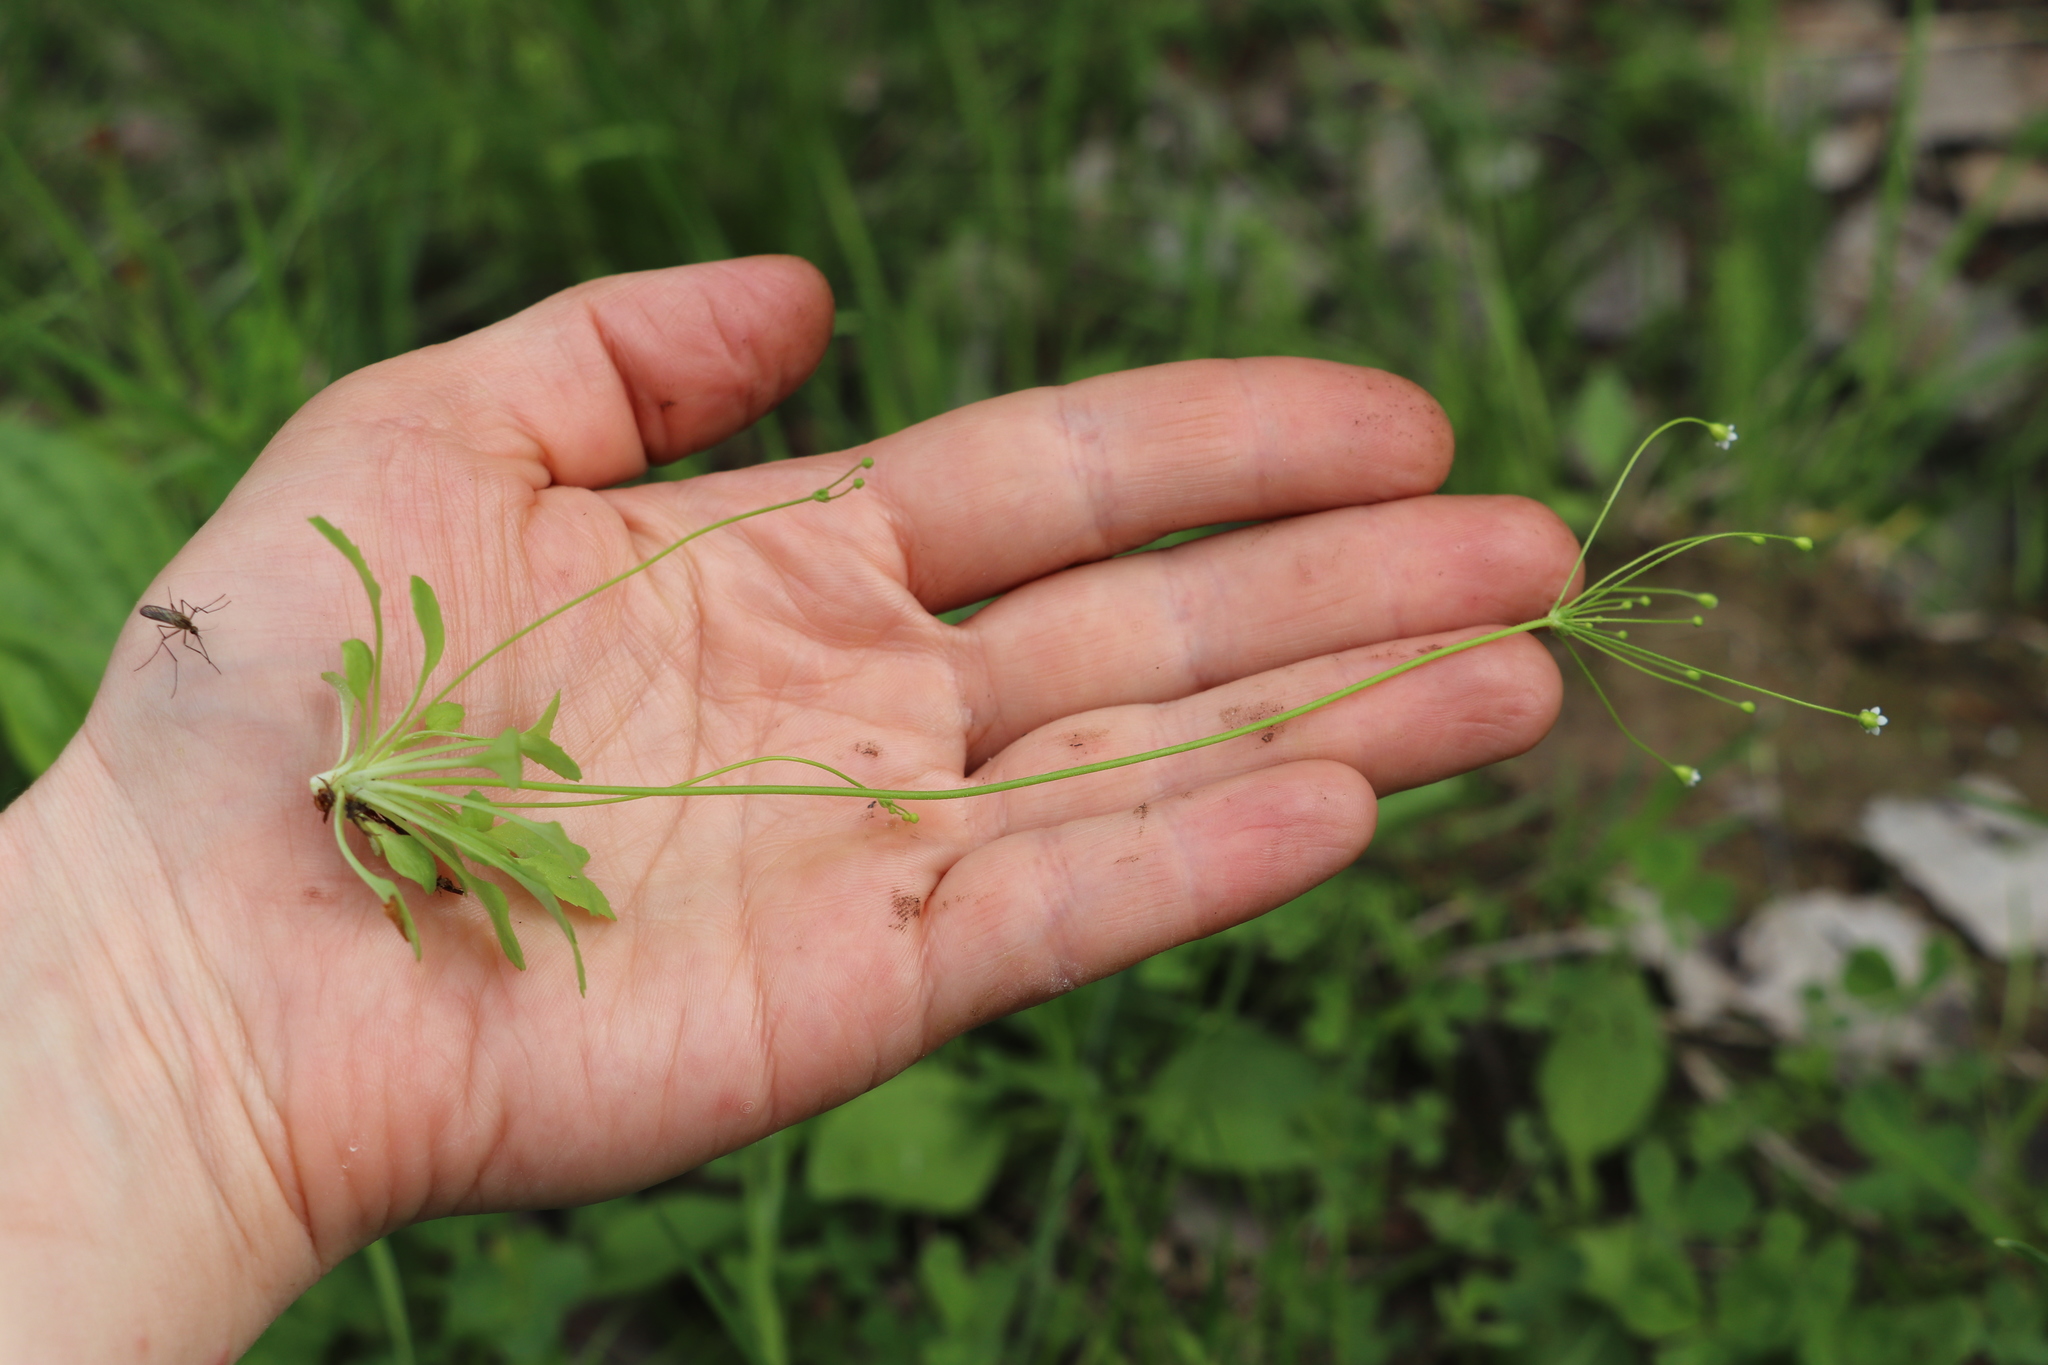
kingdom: Plantae
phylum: Tracheophyta
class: Magnoliopsida
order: Ericales
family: Primulaceae
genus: Androsace
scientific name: Androsace filiformis
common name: Filiform rock jasmine
